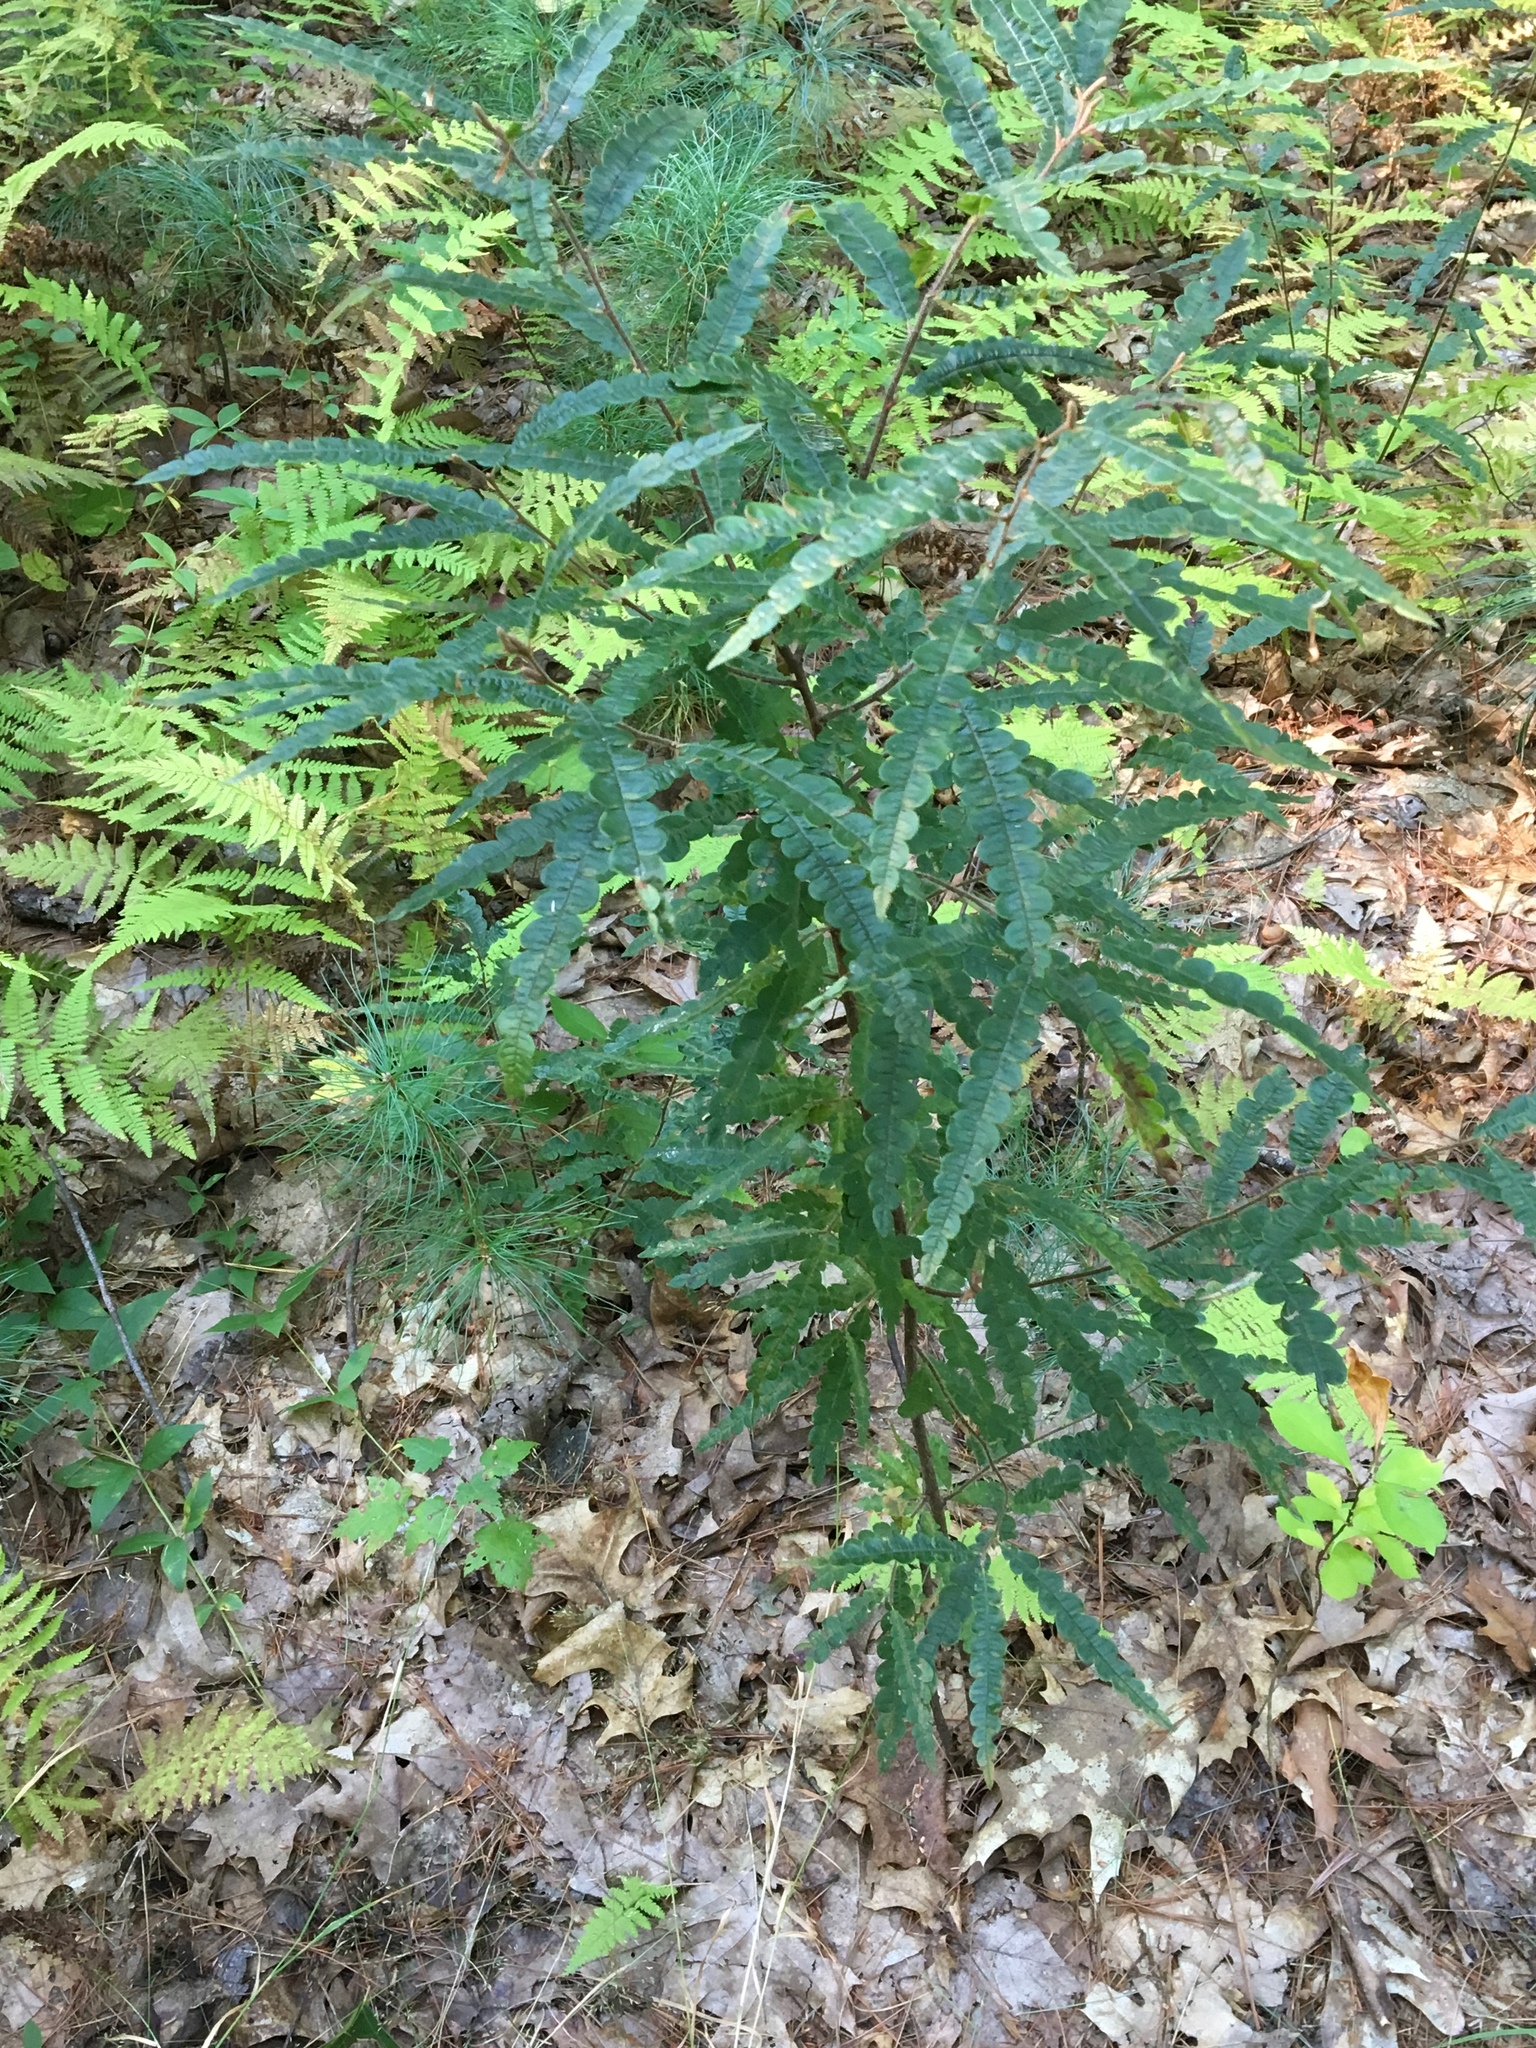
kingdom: Plantae
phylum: Tracheophyta
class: Magnoliopsida
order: Fagales
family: Myricaceae
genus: Comptonia
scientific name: Comptonia peregrina
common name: Sweet-fern
